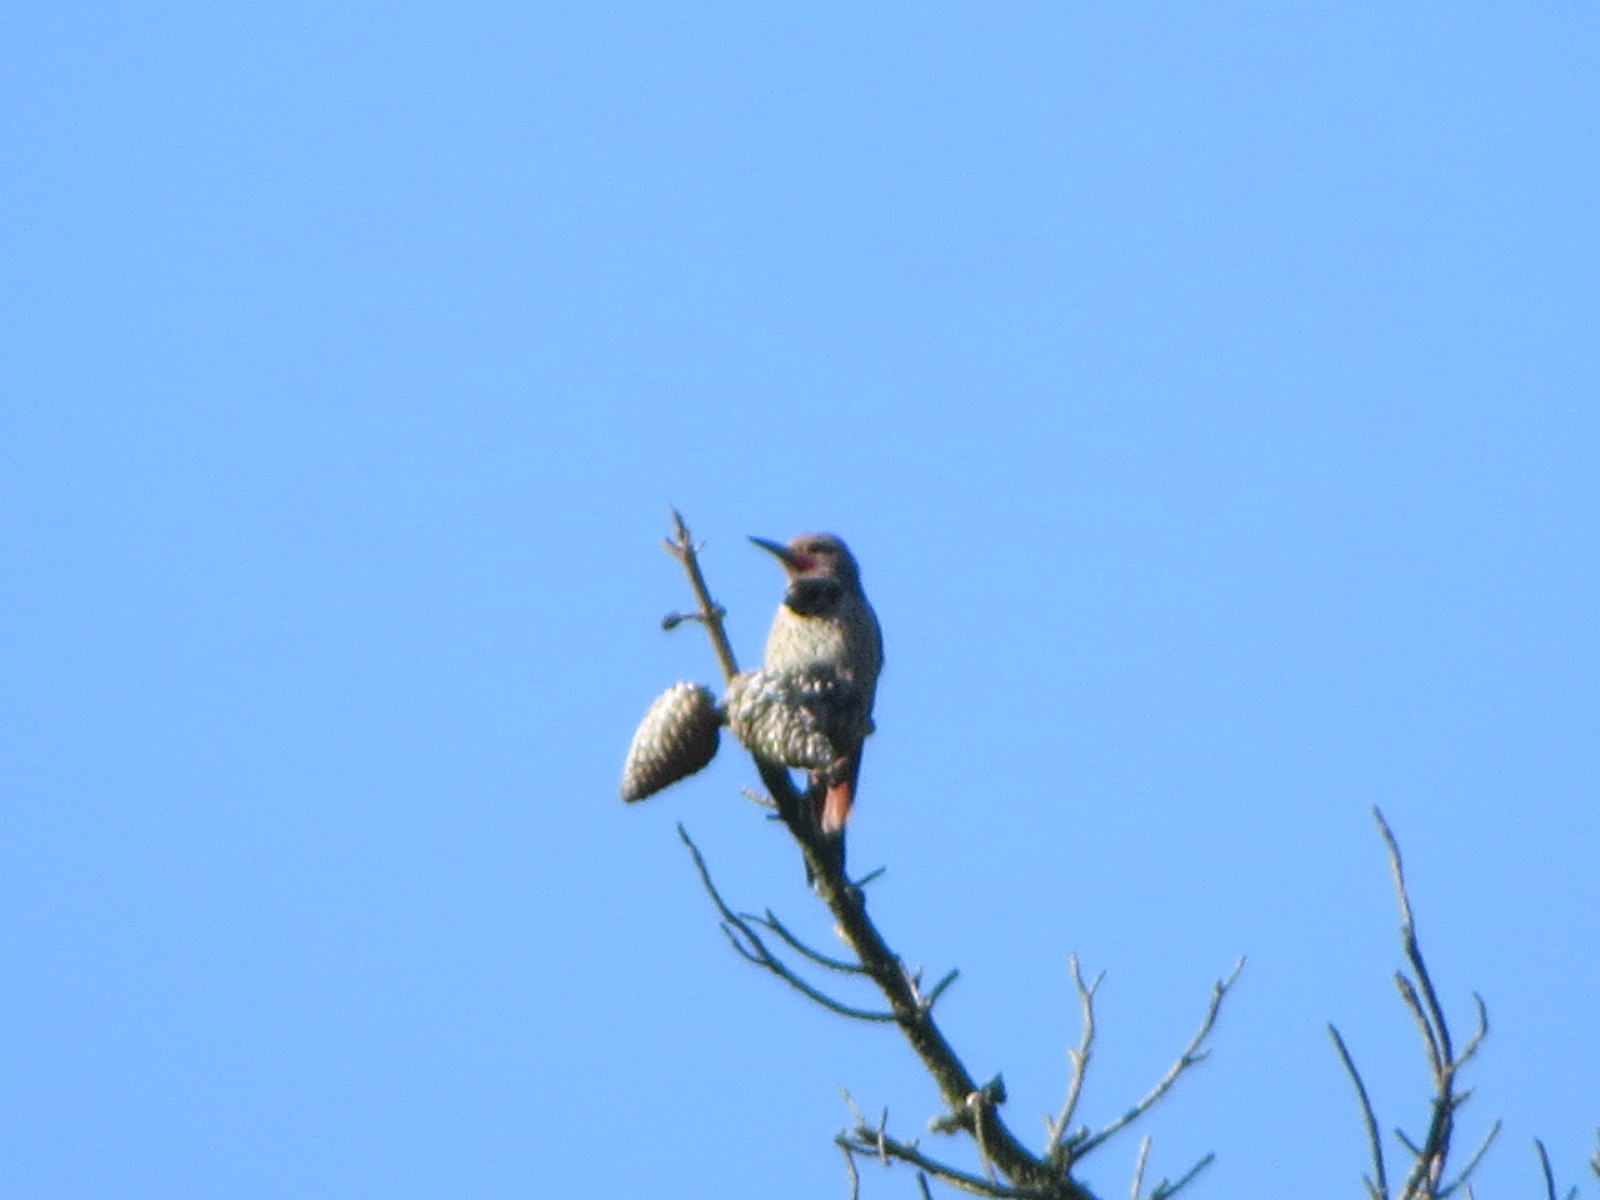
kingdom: Animalia
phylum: Chordata
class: Aves
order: Piciformes
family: Picidae
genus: Colaptes
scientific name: Colaptes auratus
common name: Northern flicker
